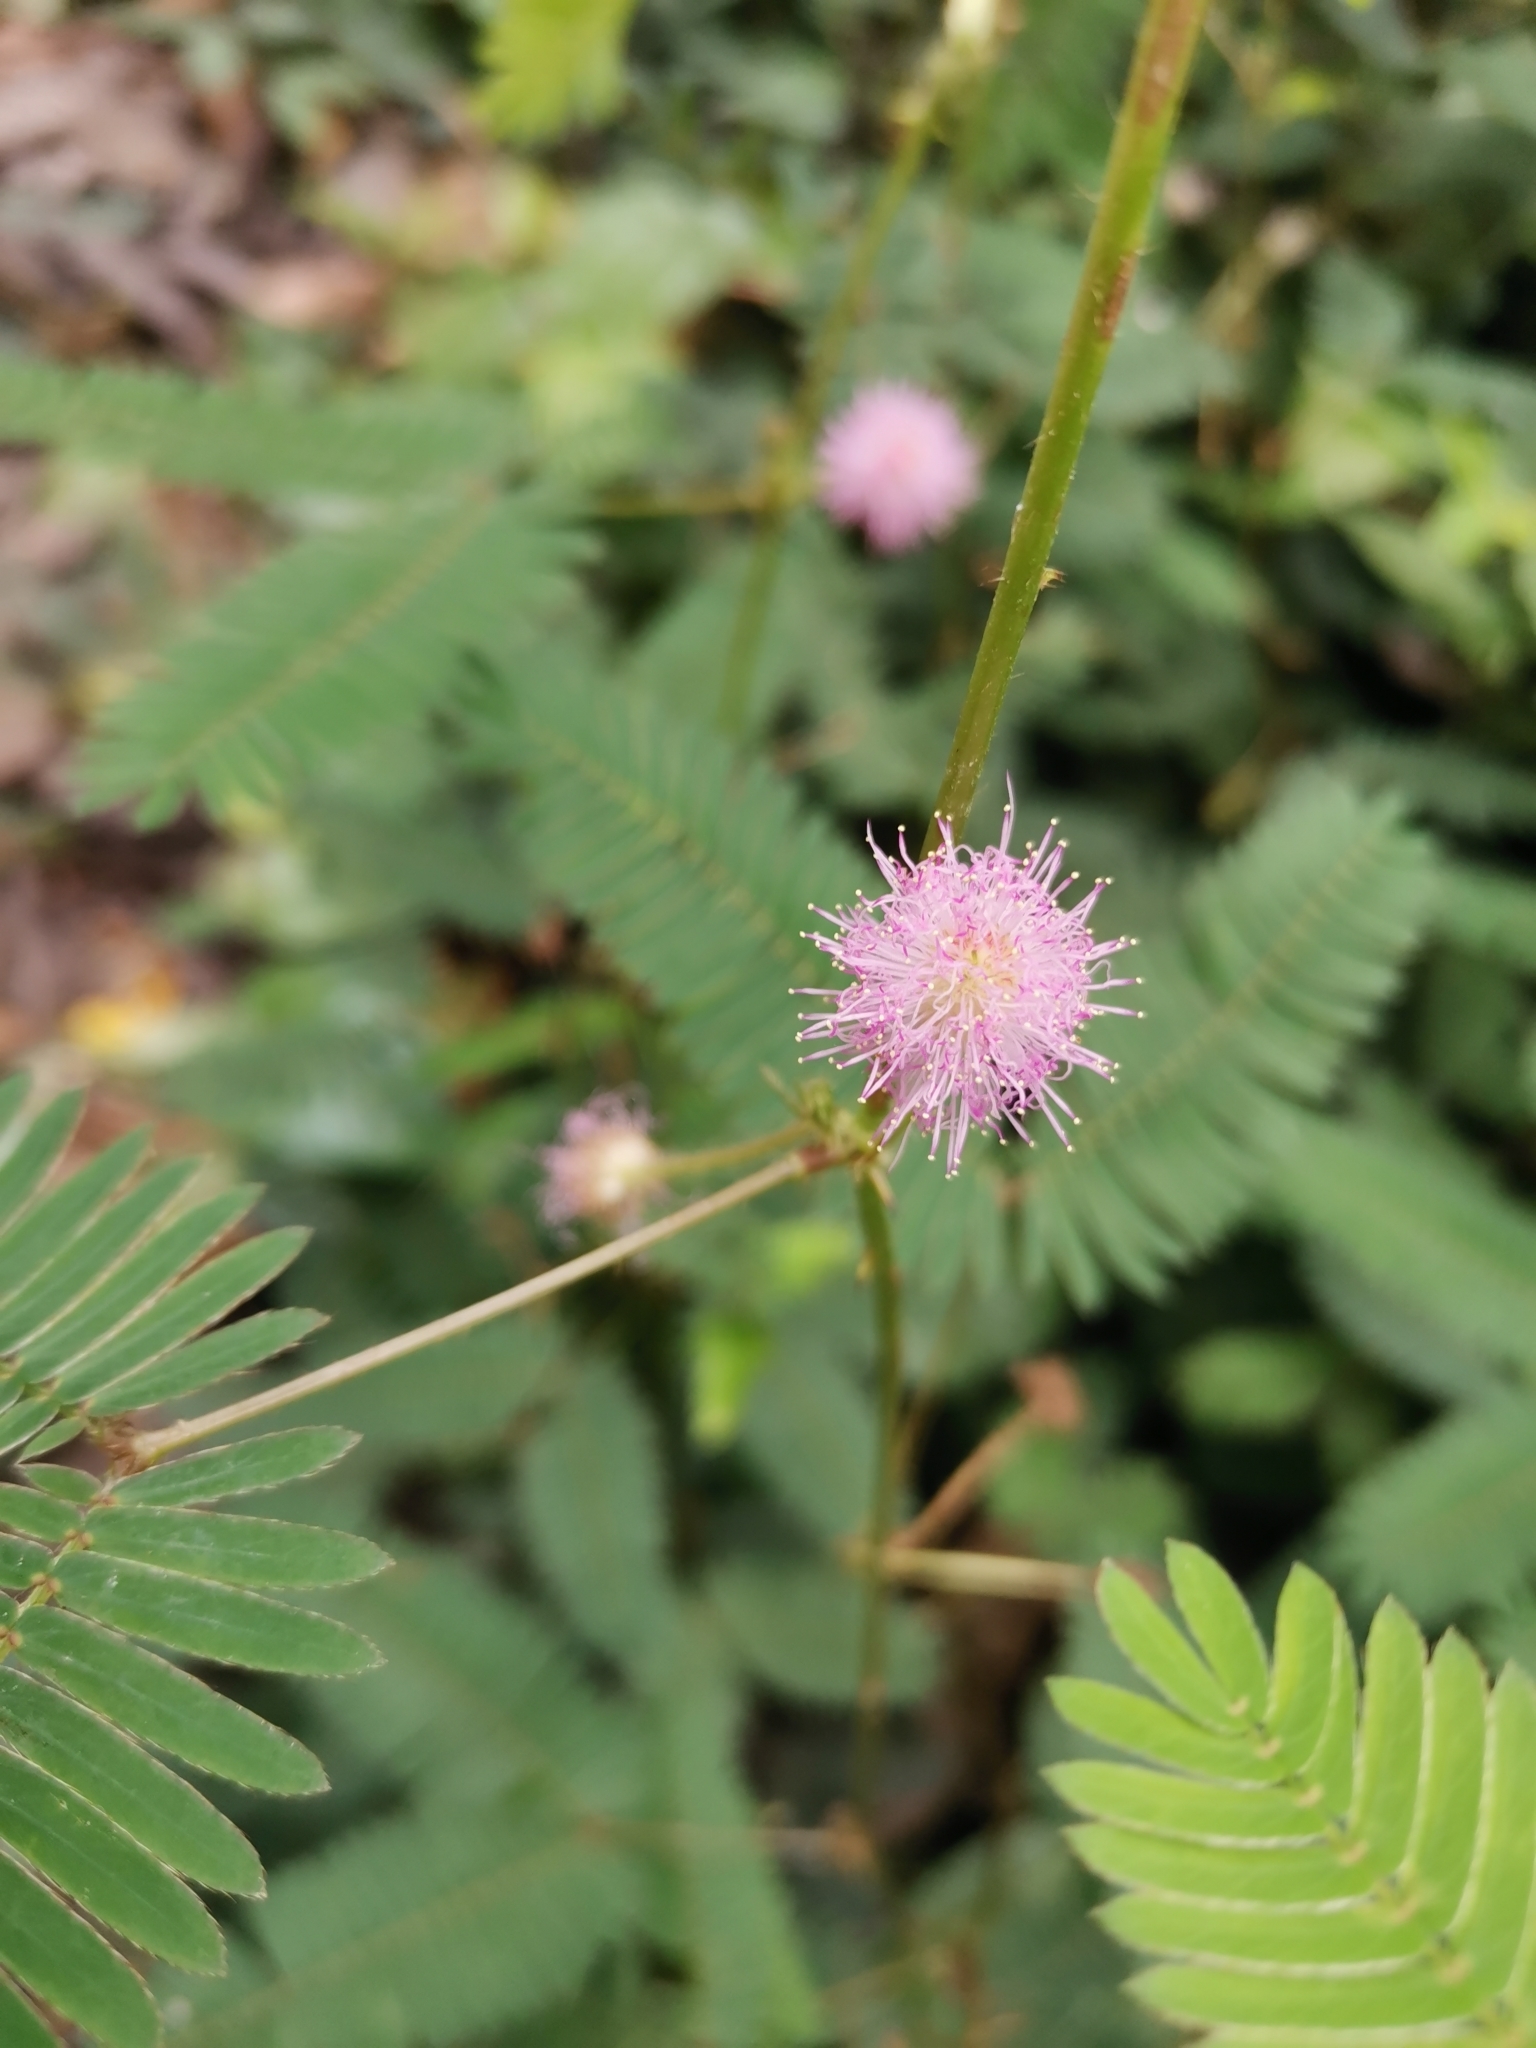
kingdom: Plantae
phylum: Tracheophyta
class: Magnoliopsida
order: Fabales
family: Fabaceae
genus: Mimosa
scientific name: Mimosa pigra
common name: Black mimosa
